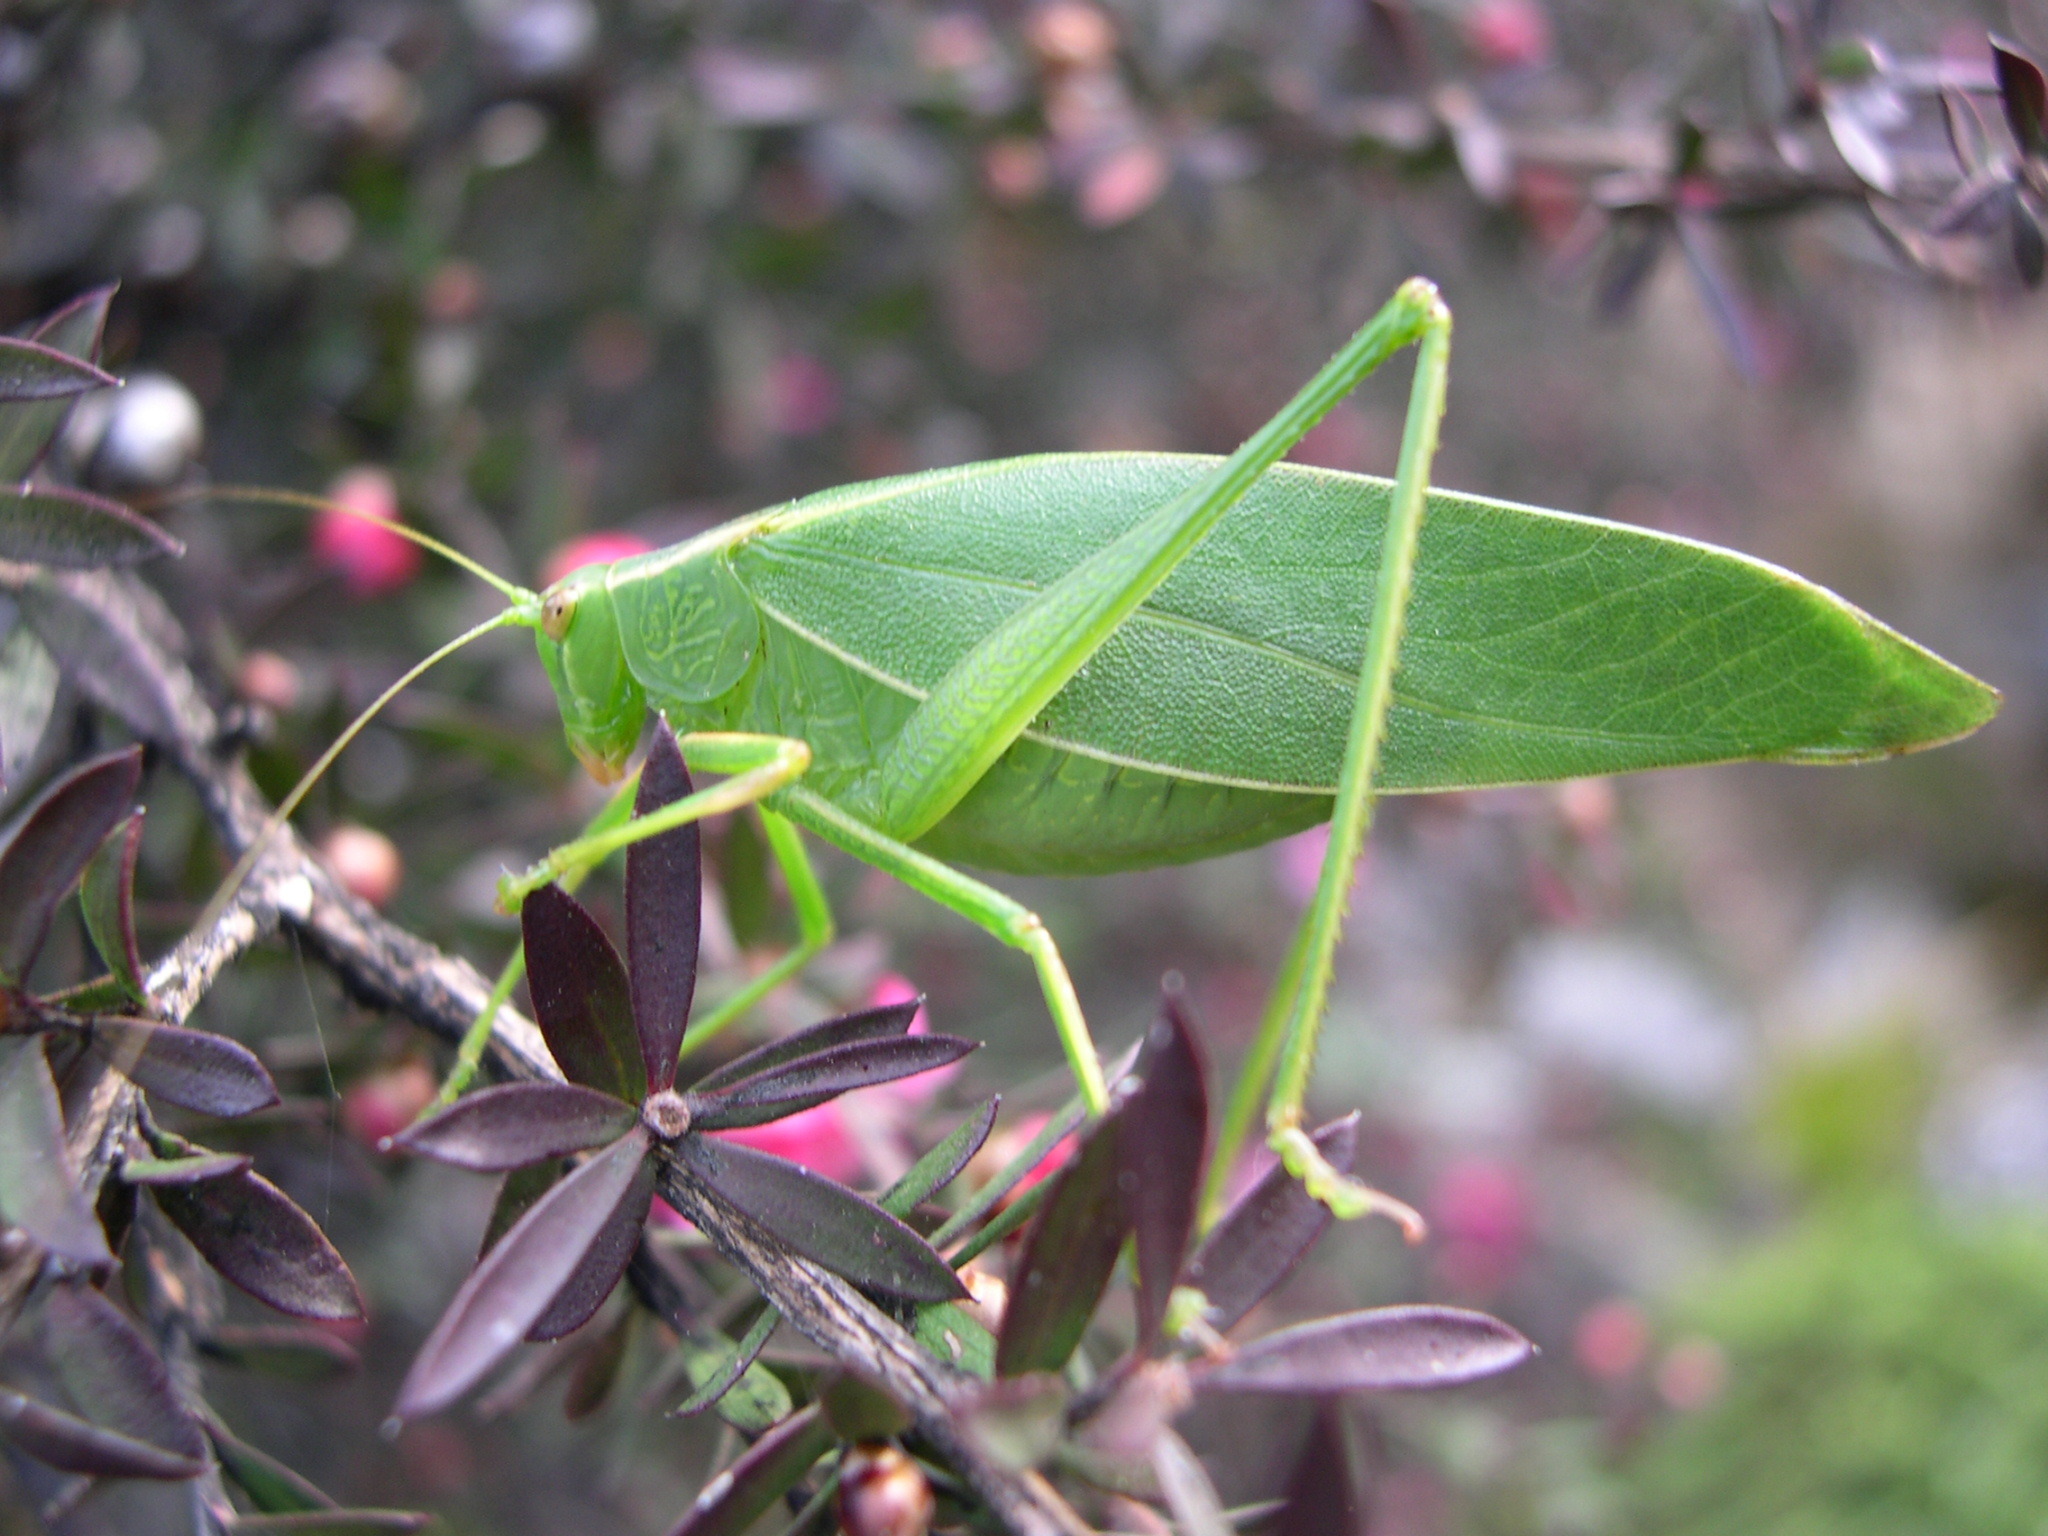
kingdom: Animalia
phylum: Arthropoda
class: Insecta
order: Orthoptera
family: Tettigoniidae
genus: Caedicia
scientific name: Caedicia simplex
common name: Common garden katydid
